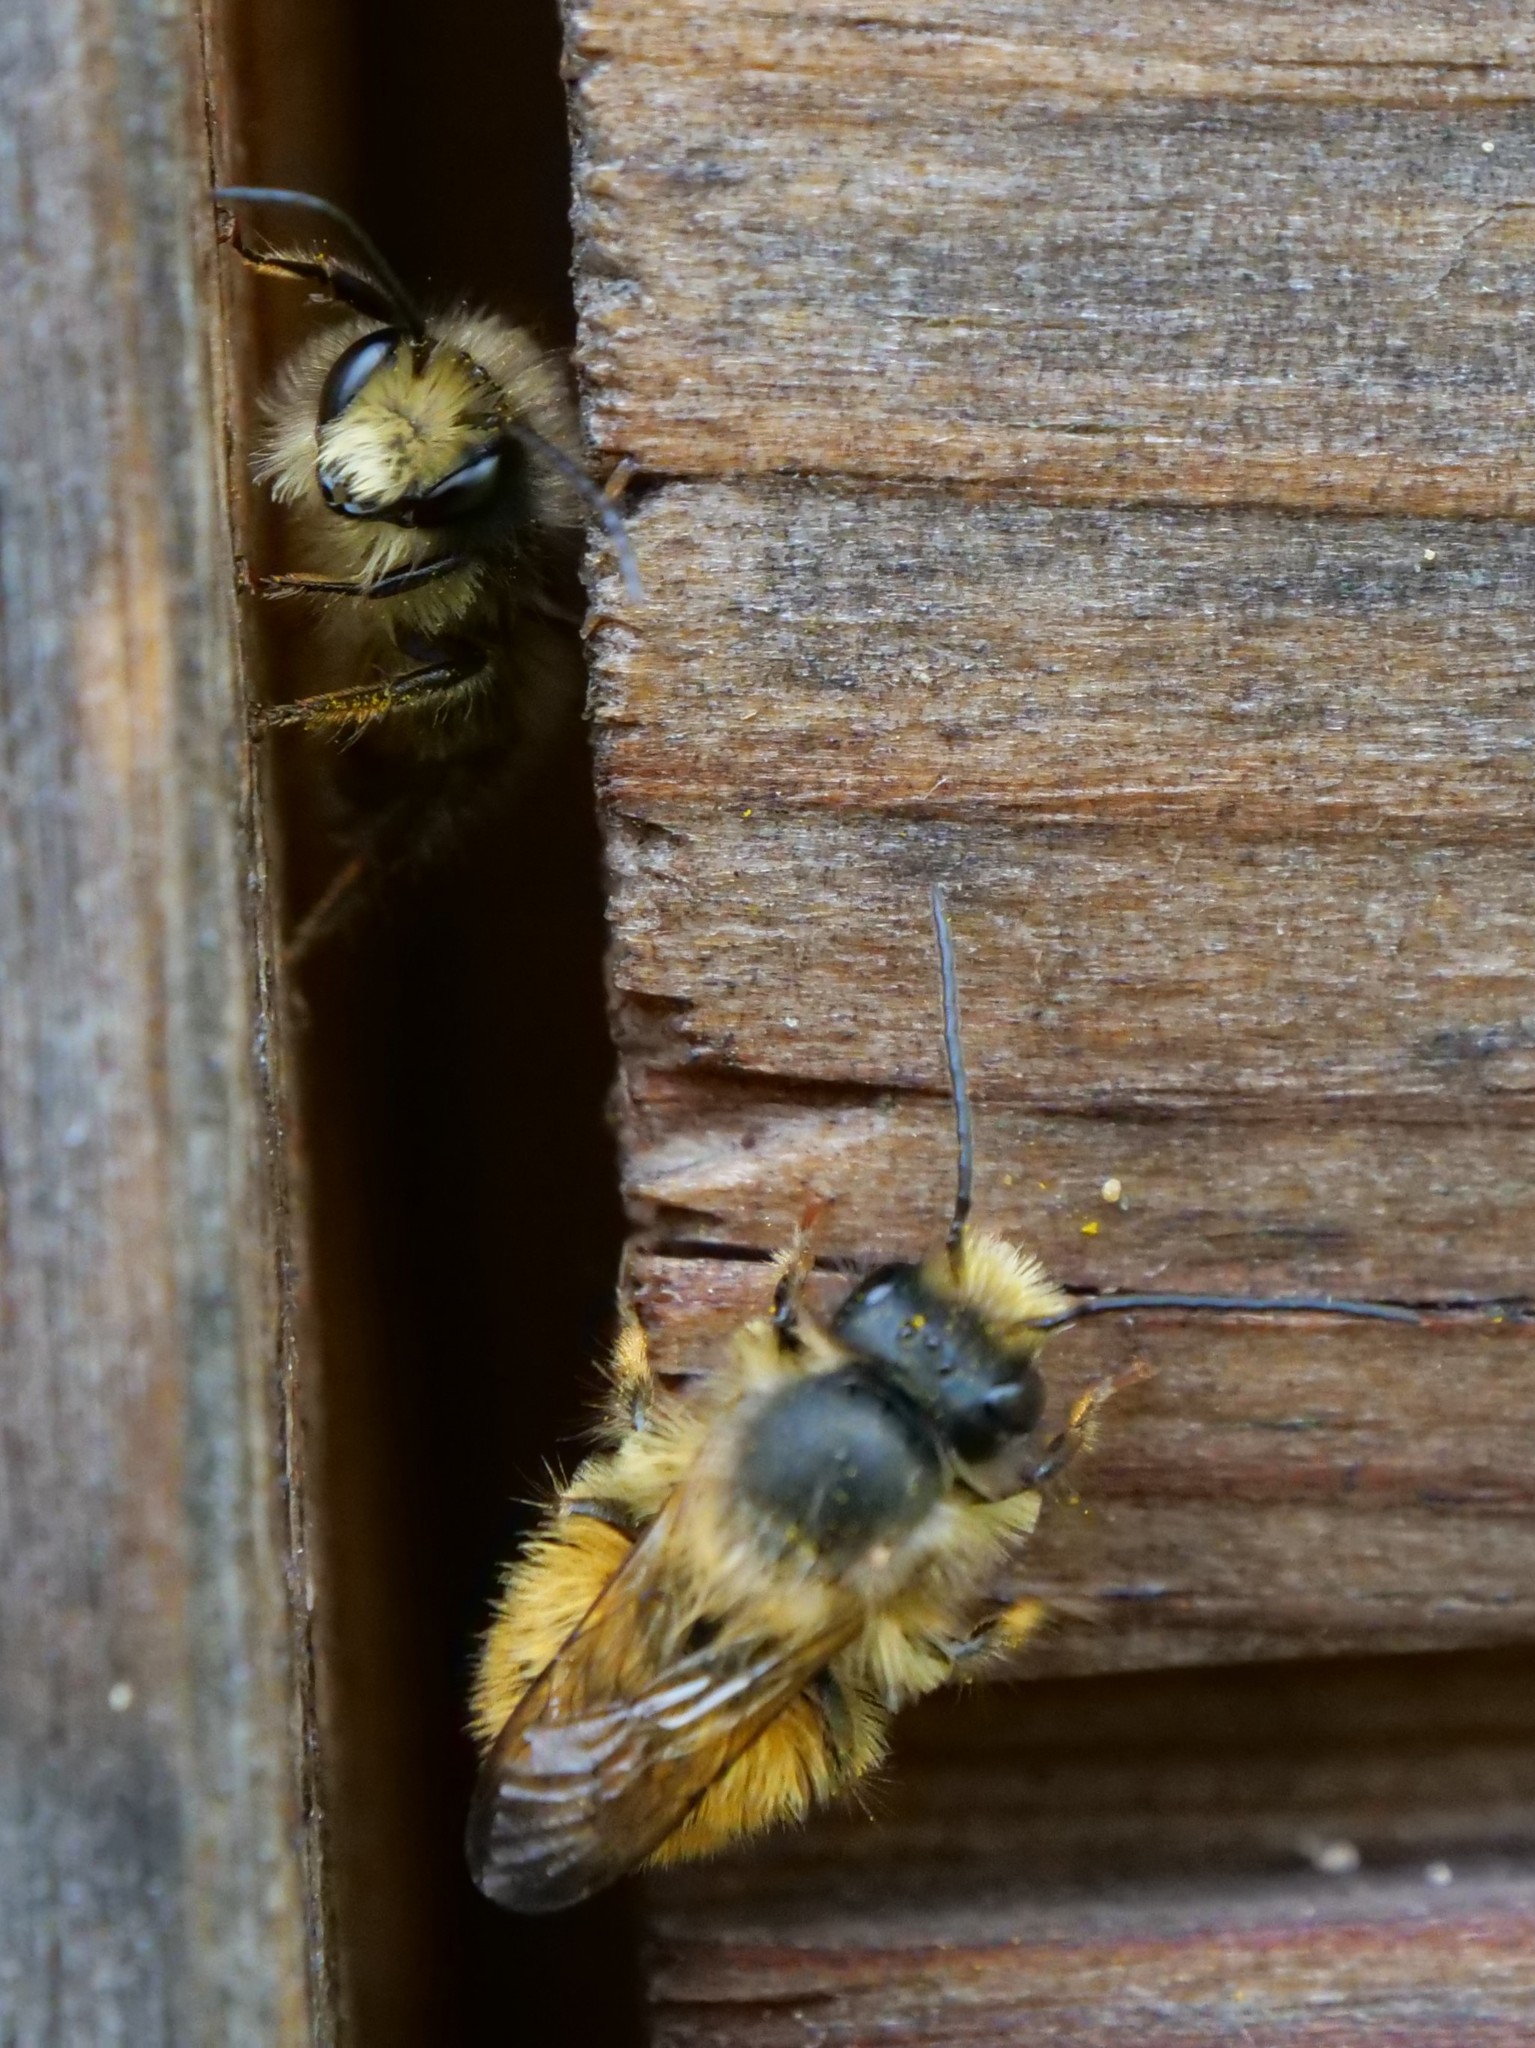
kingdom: Animalia
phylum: Arthropoda
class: Insecta
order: Hymenoptera
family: Megachilidae
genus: Osmia
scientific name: Osmia bicornis
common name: Red mason bee
